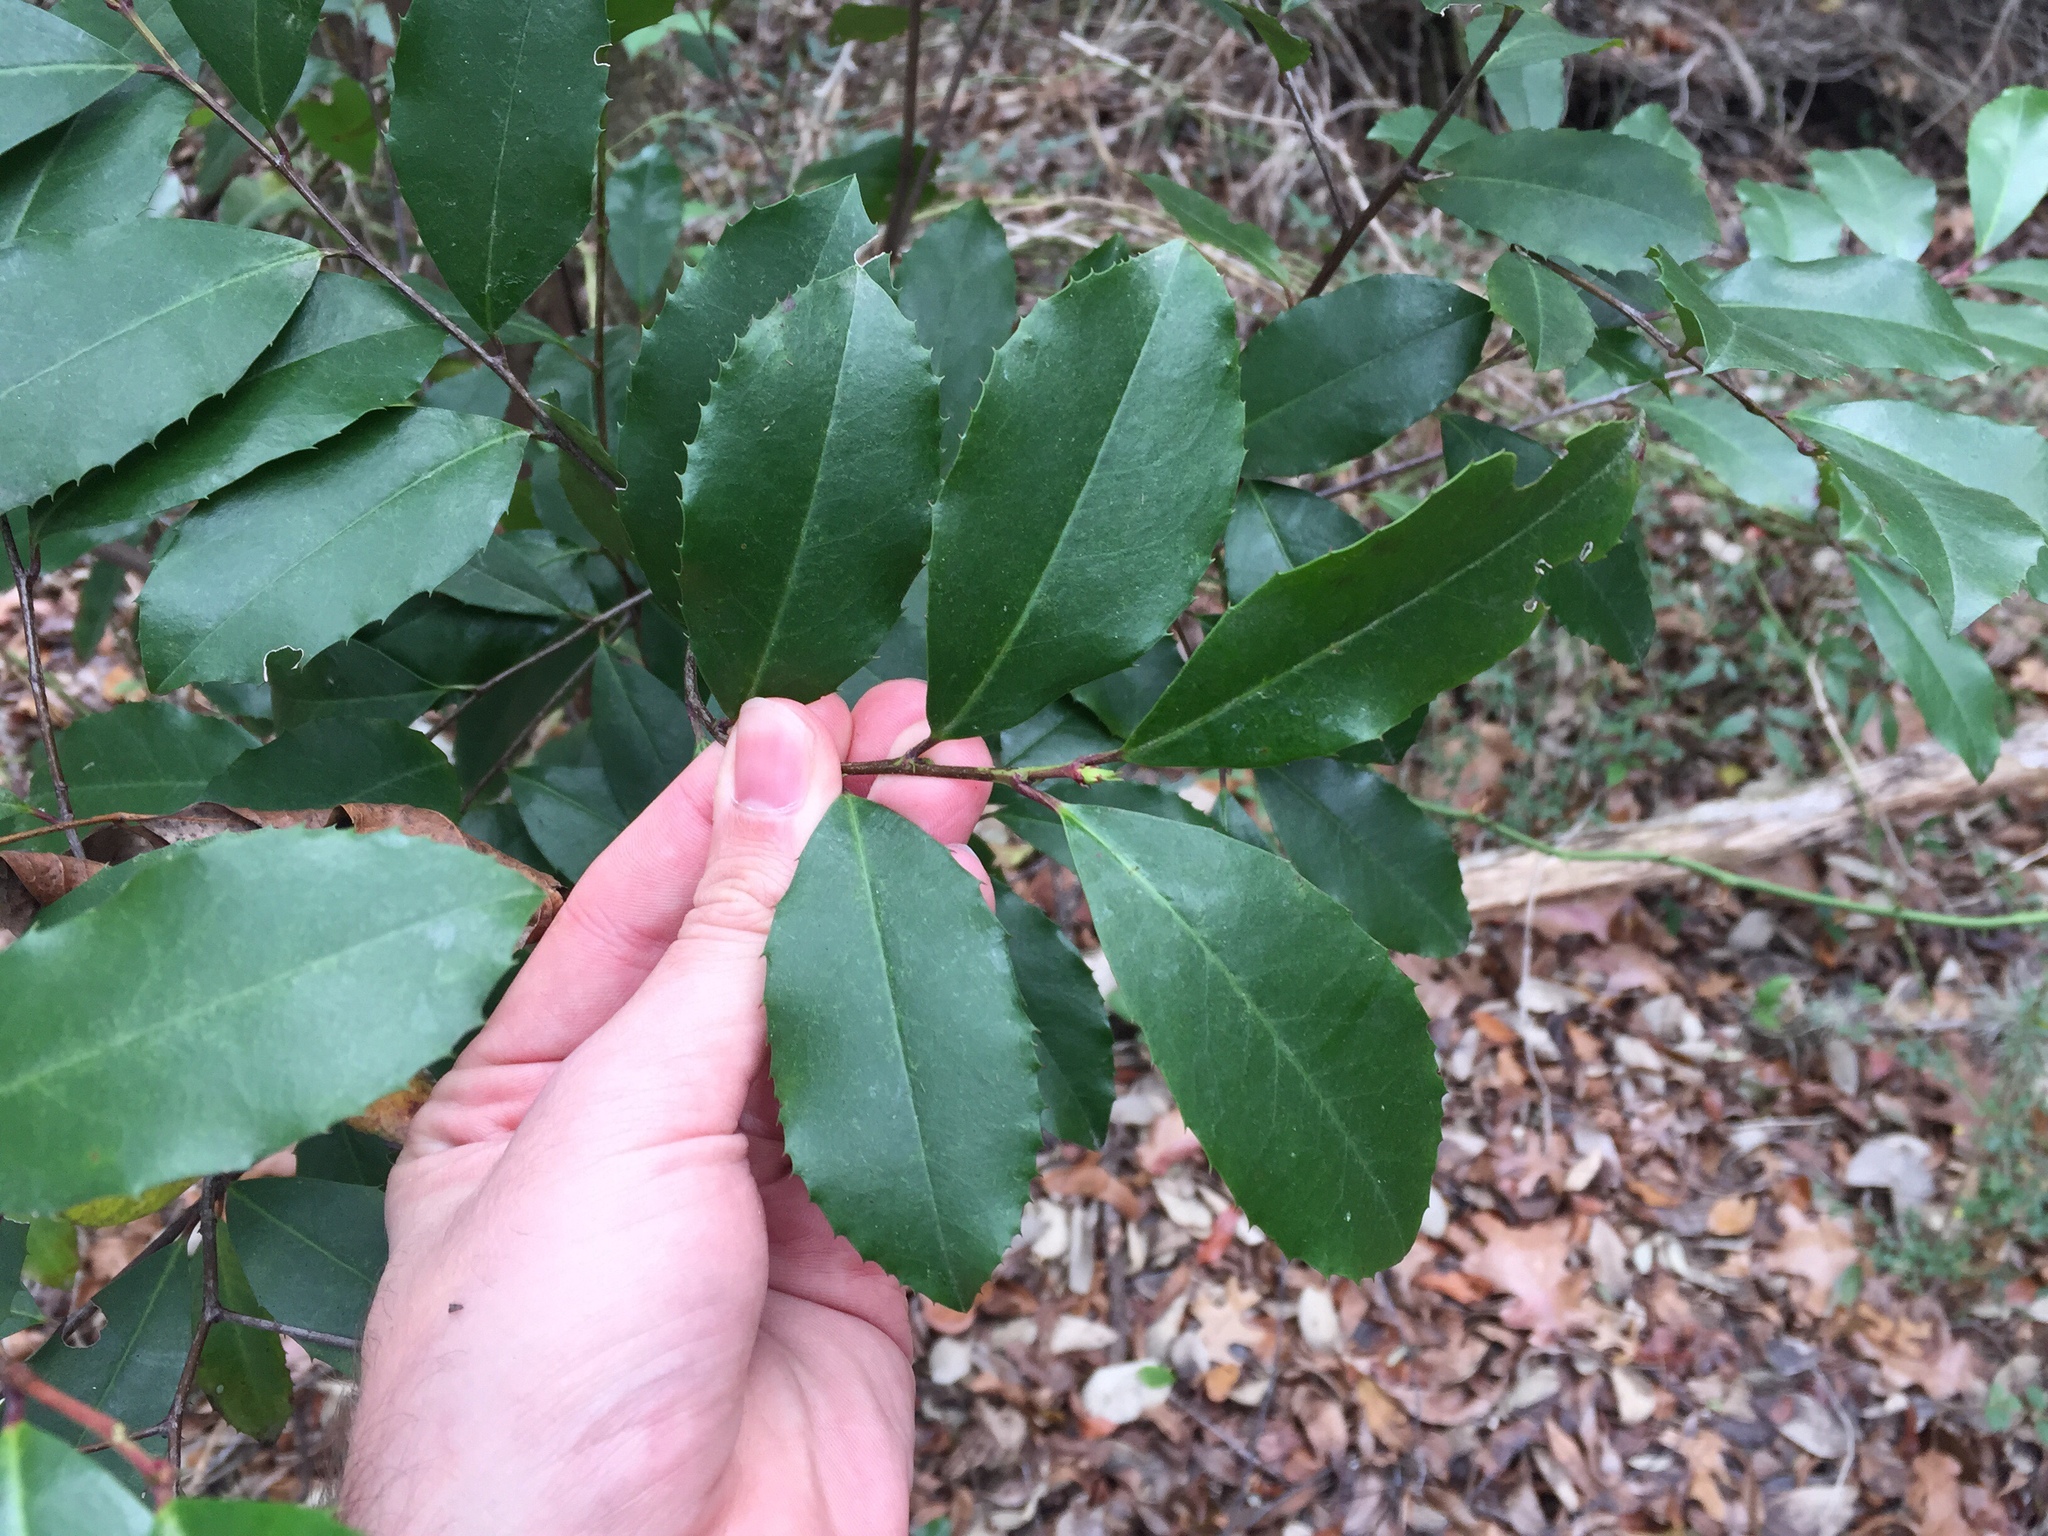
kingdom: Plantae
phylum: Tracheophyta
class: Magnoliopsida
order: Rosales
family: Rosaceae
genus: Prunus
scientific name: Prunus caroliniana
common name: Carolina laurel cherry
